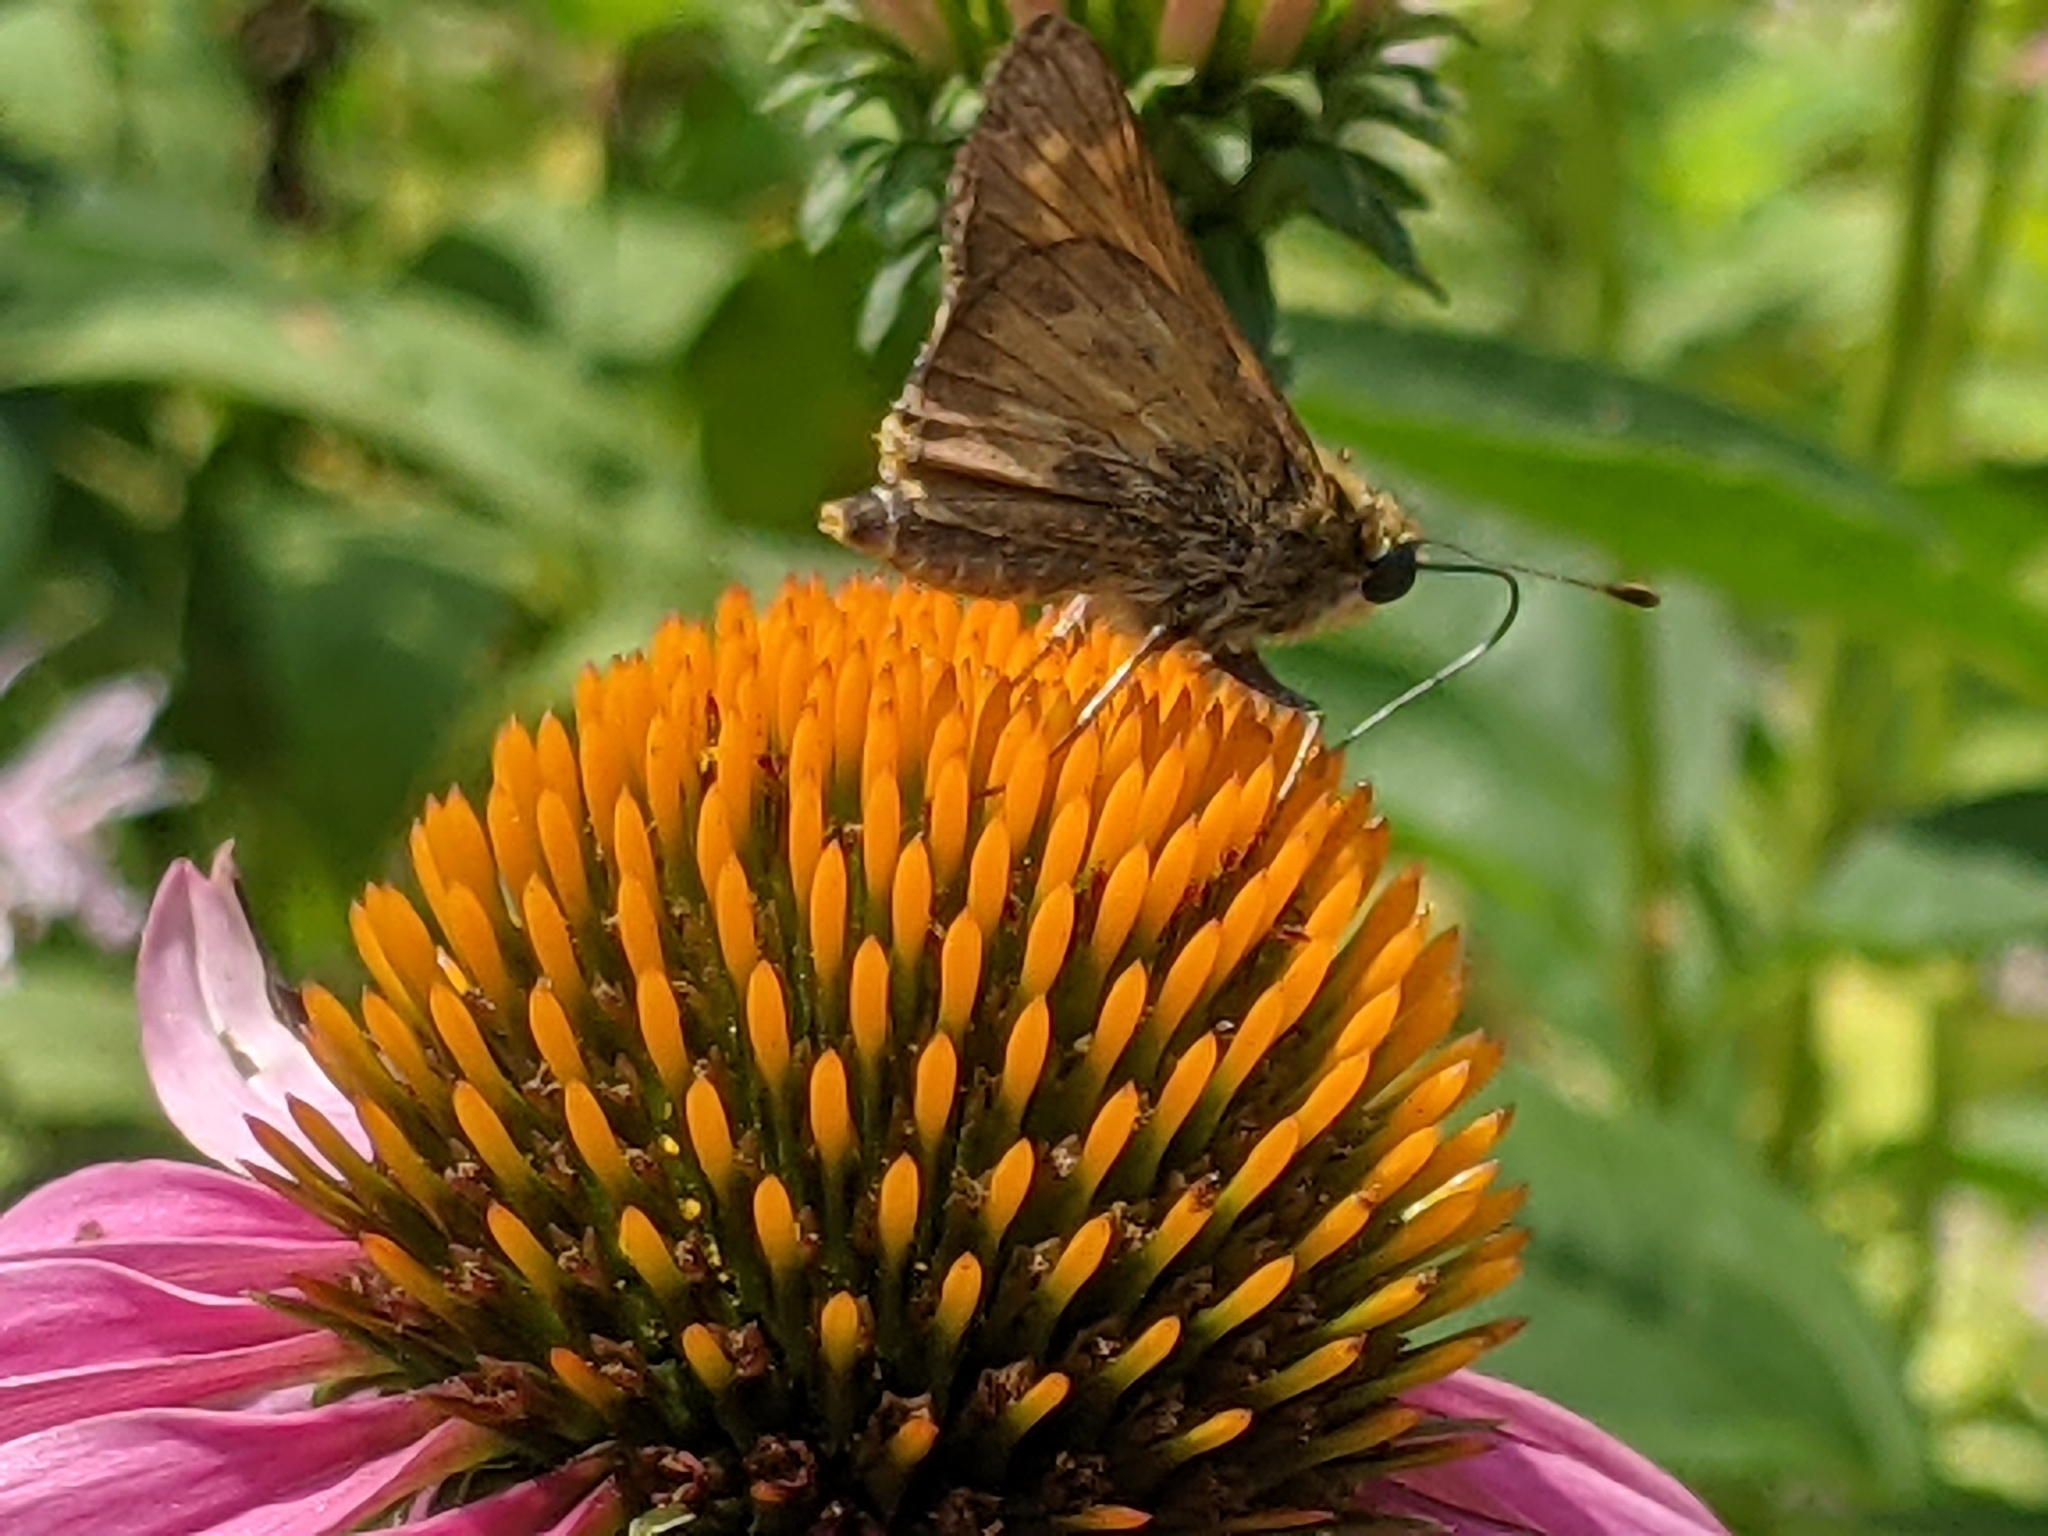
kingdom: Animalia
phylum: Arthropoda
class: Insecta
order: Lepidoptera
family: Hesperiidae
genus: Atalopedes
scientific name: Atalopedes
